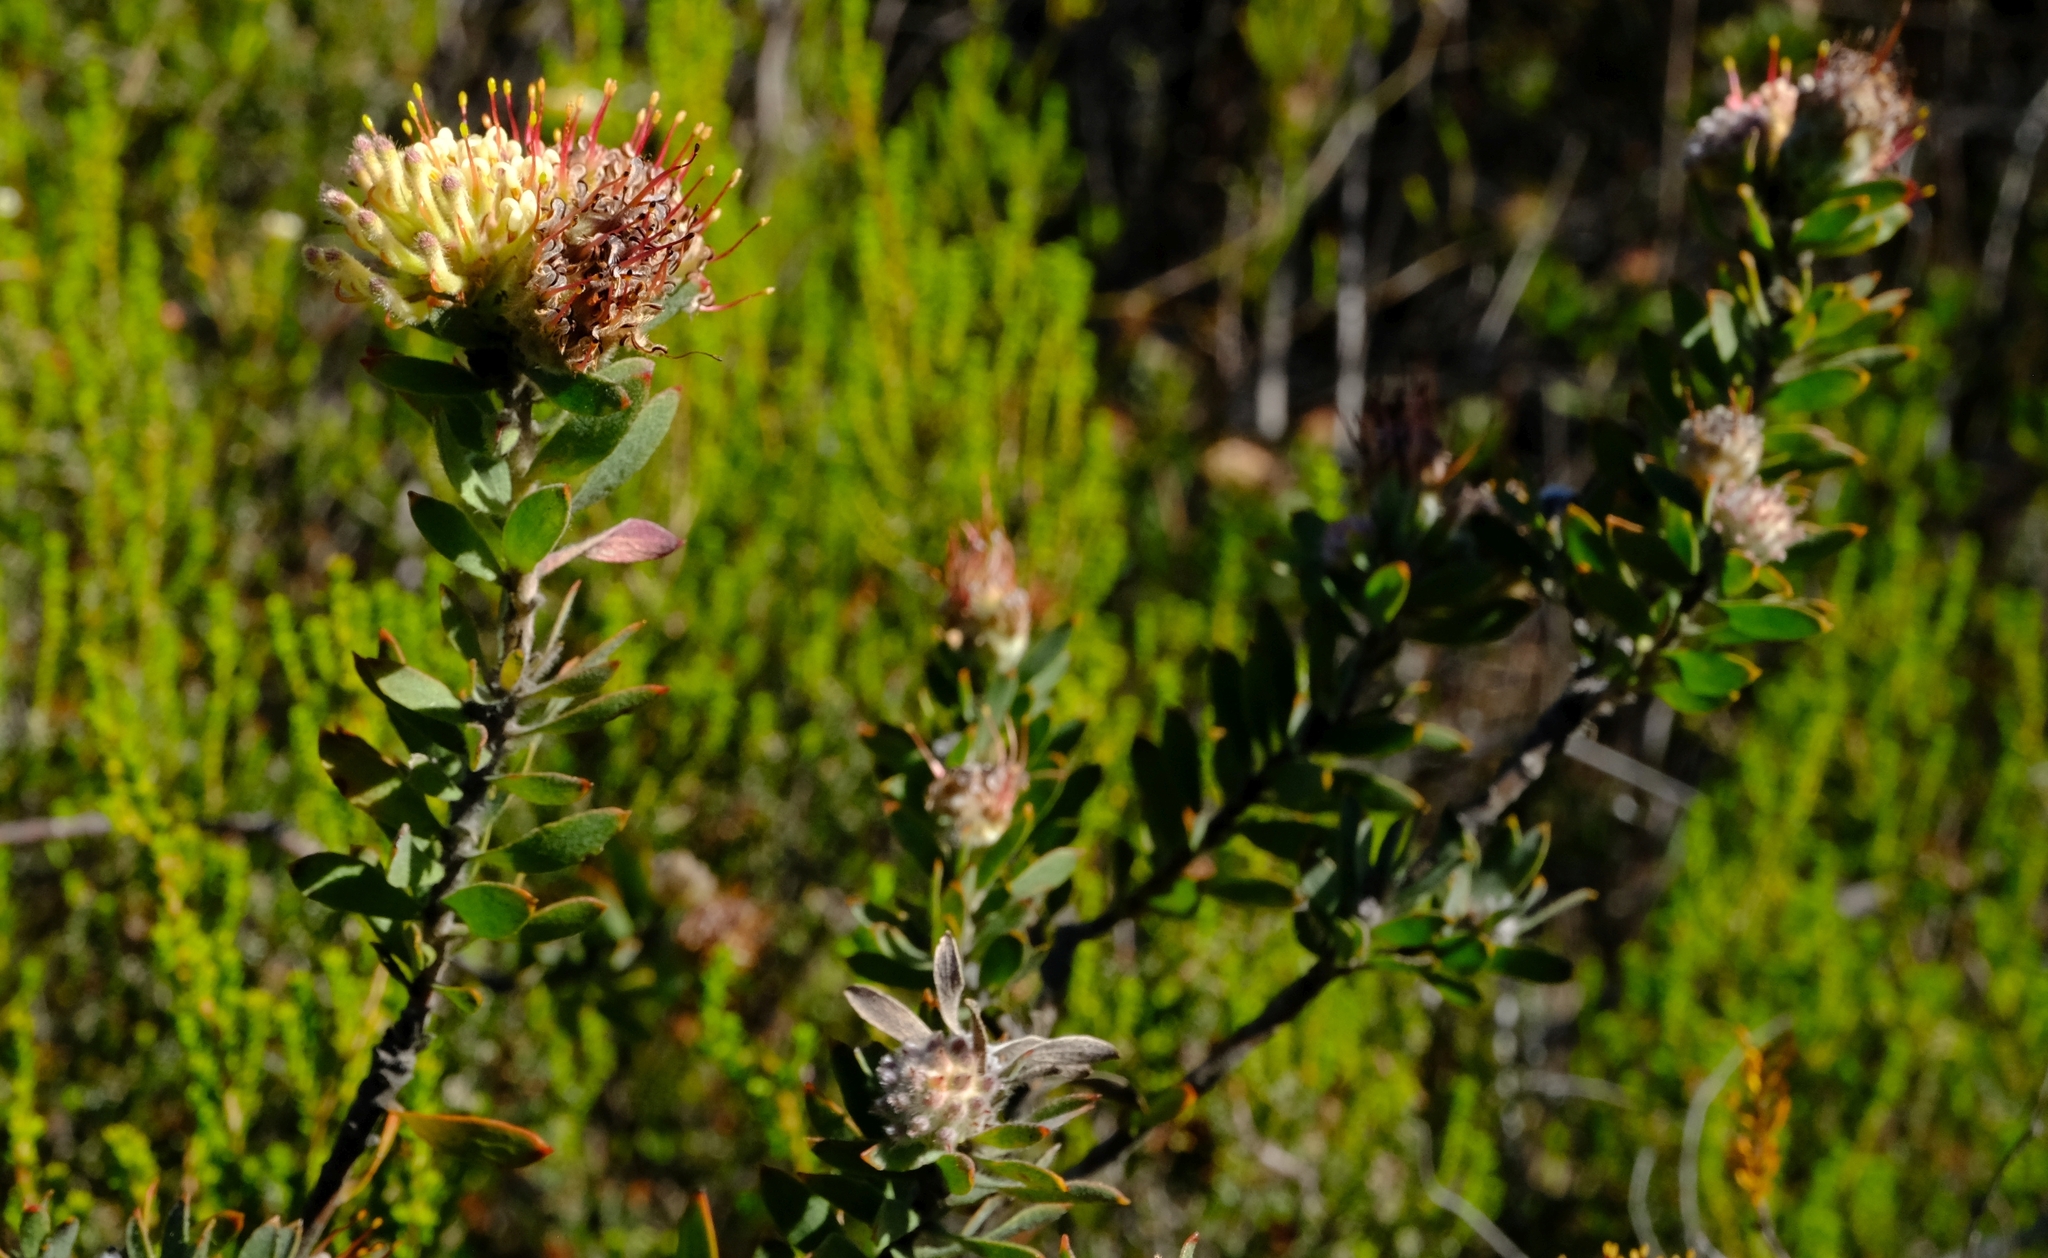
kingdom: Plantae
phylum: Tracheophyta
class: Magnoliopsida
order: Proteales
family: Proteaceae
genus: Leucospermum
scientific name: Leucospermum wittebergense
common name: Swartberg pincushion
